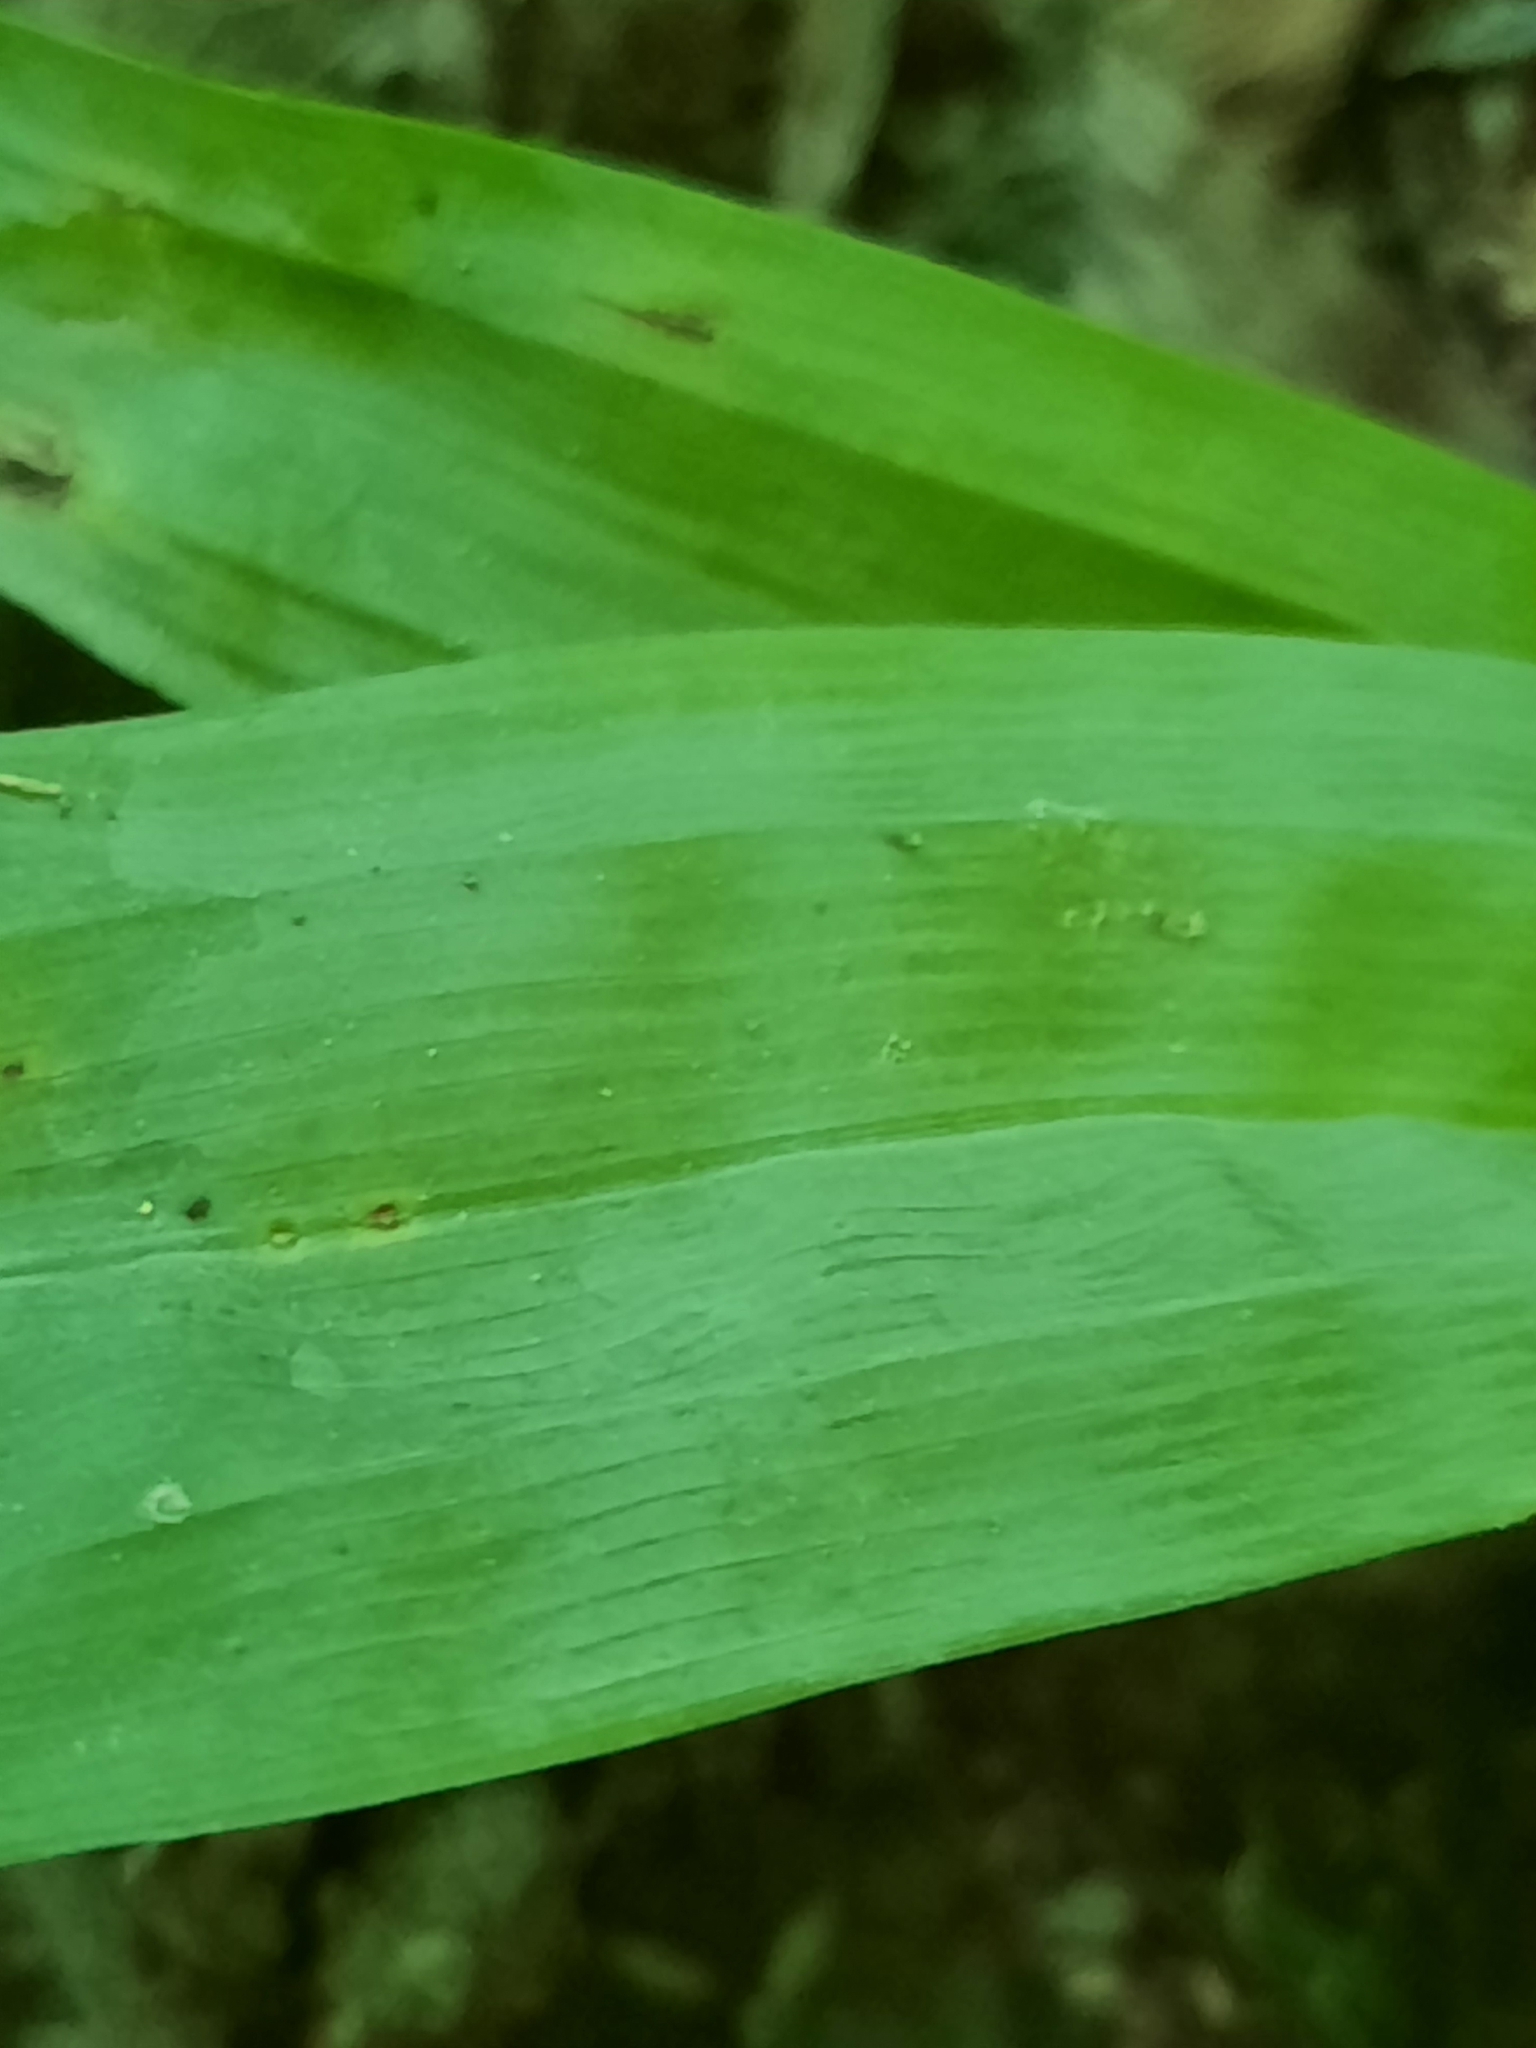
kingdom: Plantae
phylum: Tracheophyta
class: Liliopsida
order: Poales
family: Cyperaceae
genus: Carex
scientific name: Carex platyphylla
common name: Broad-leaved sedge
